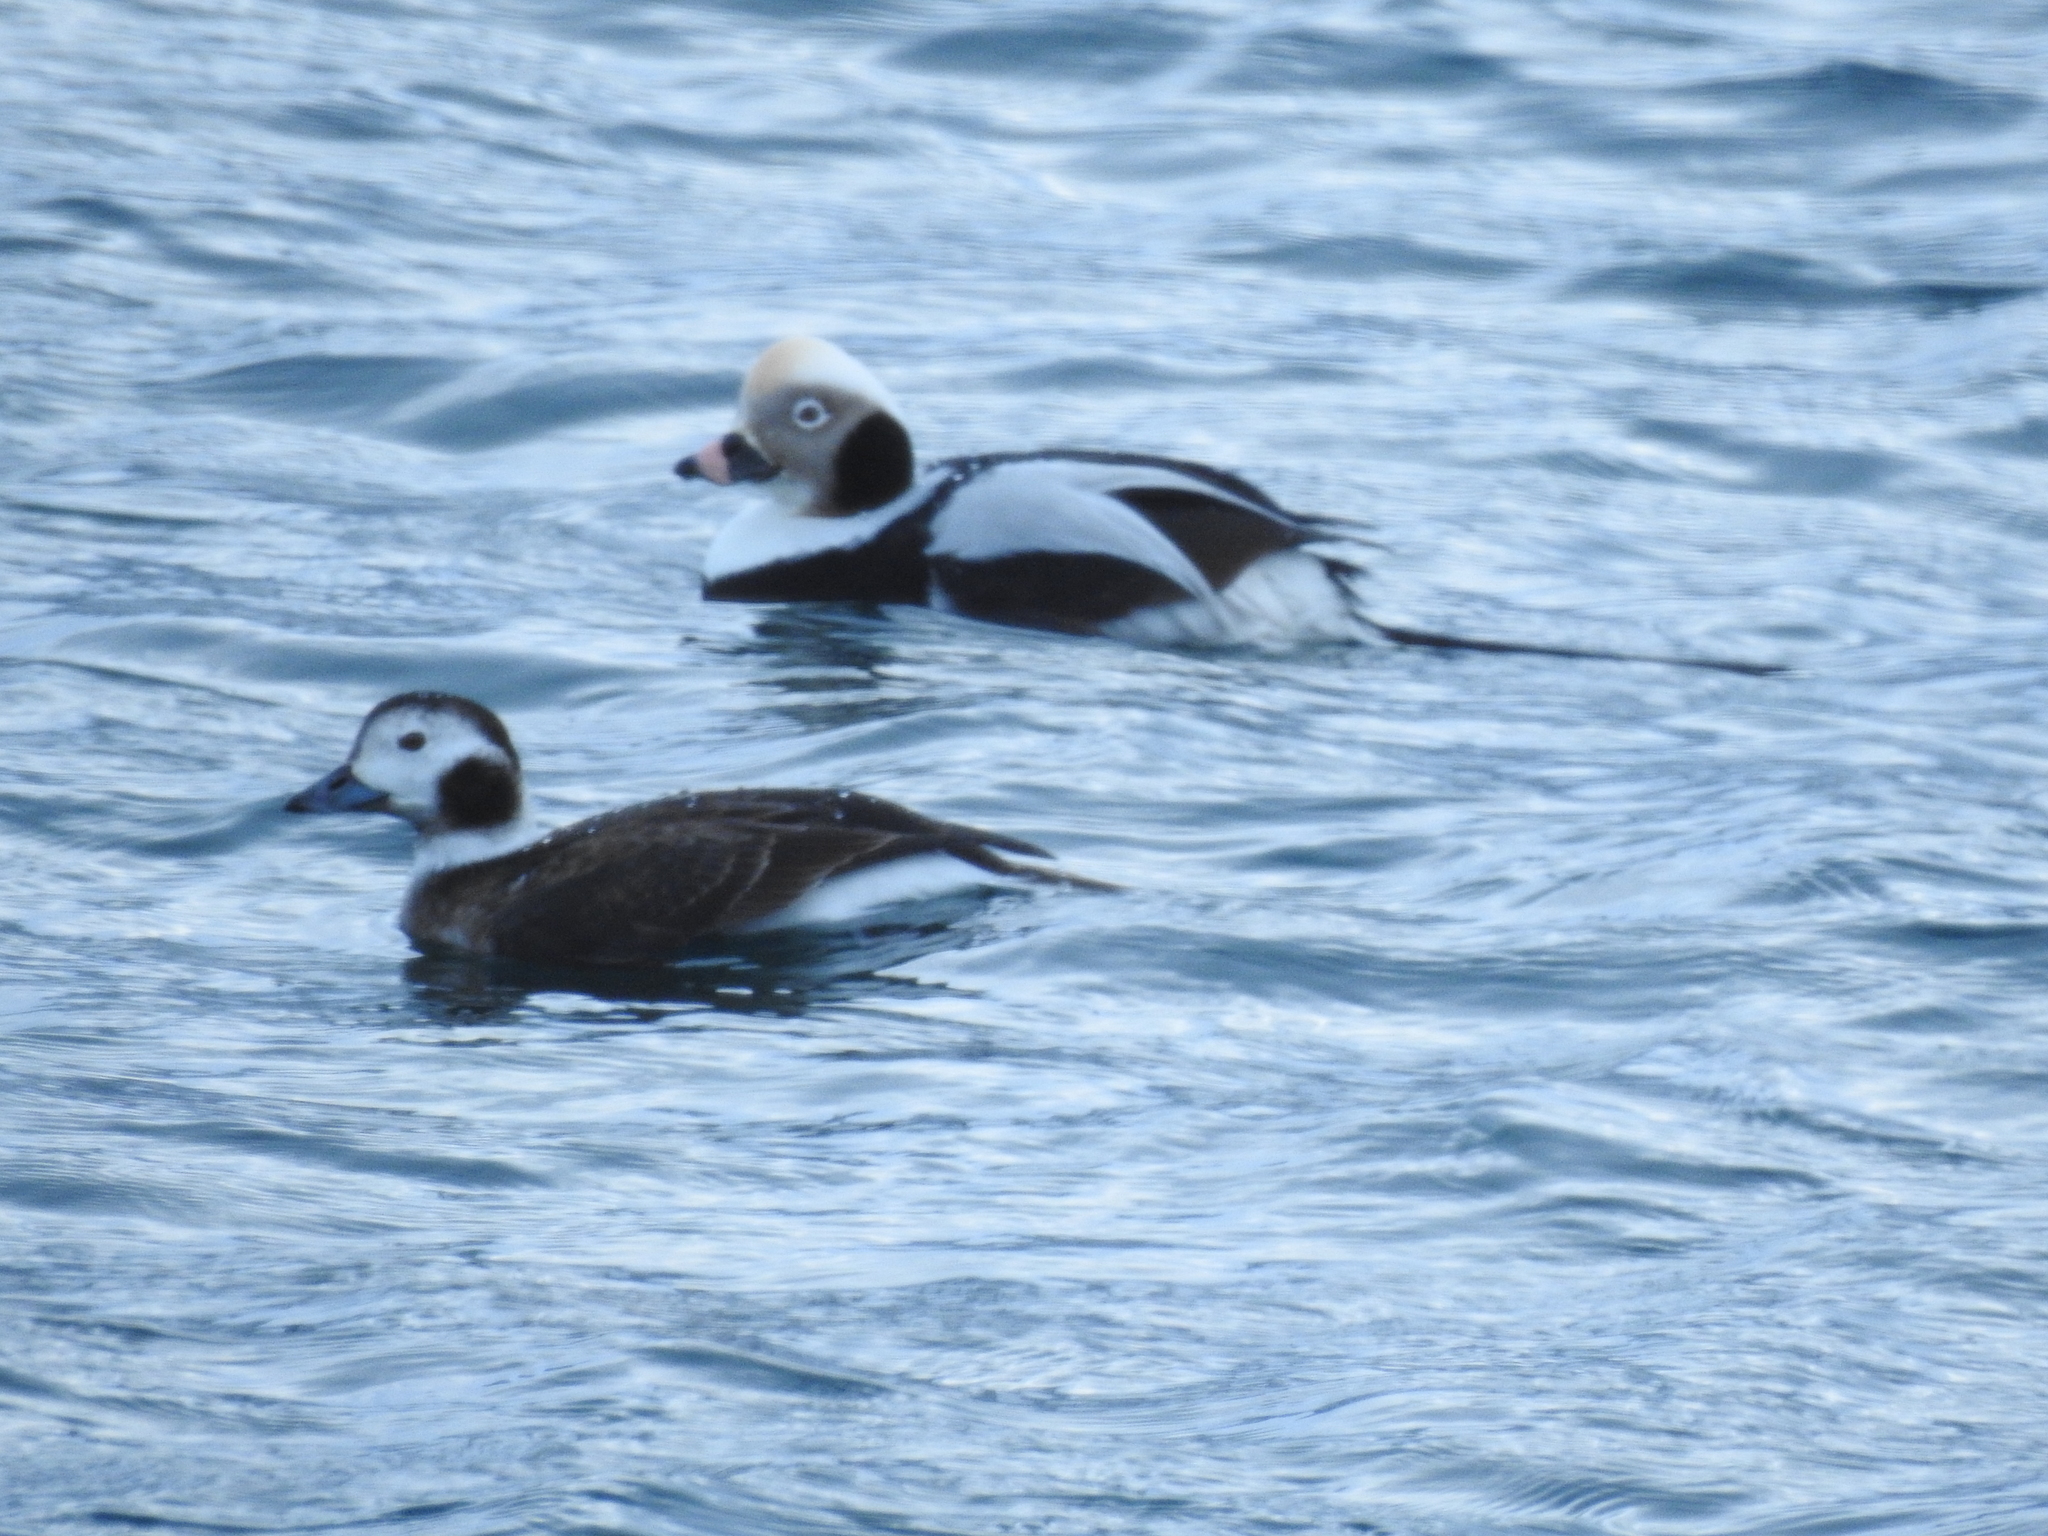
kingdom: Animalia
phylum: Chordata
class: Aves
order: Anseriformes
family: Anatidae
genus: Clangula
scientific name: Clangula hyemalis
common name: Long-tailed duck
